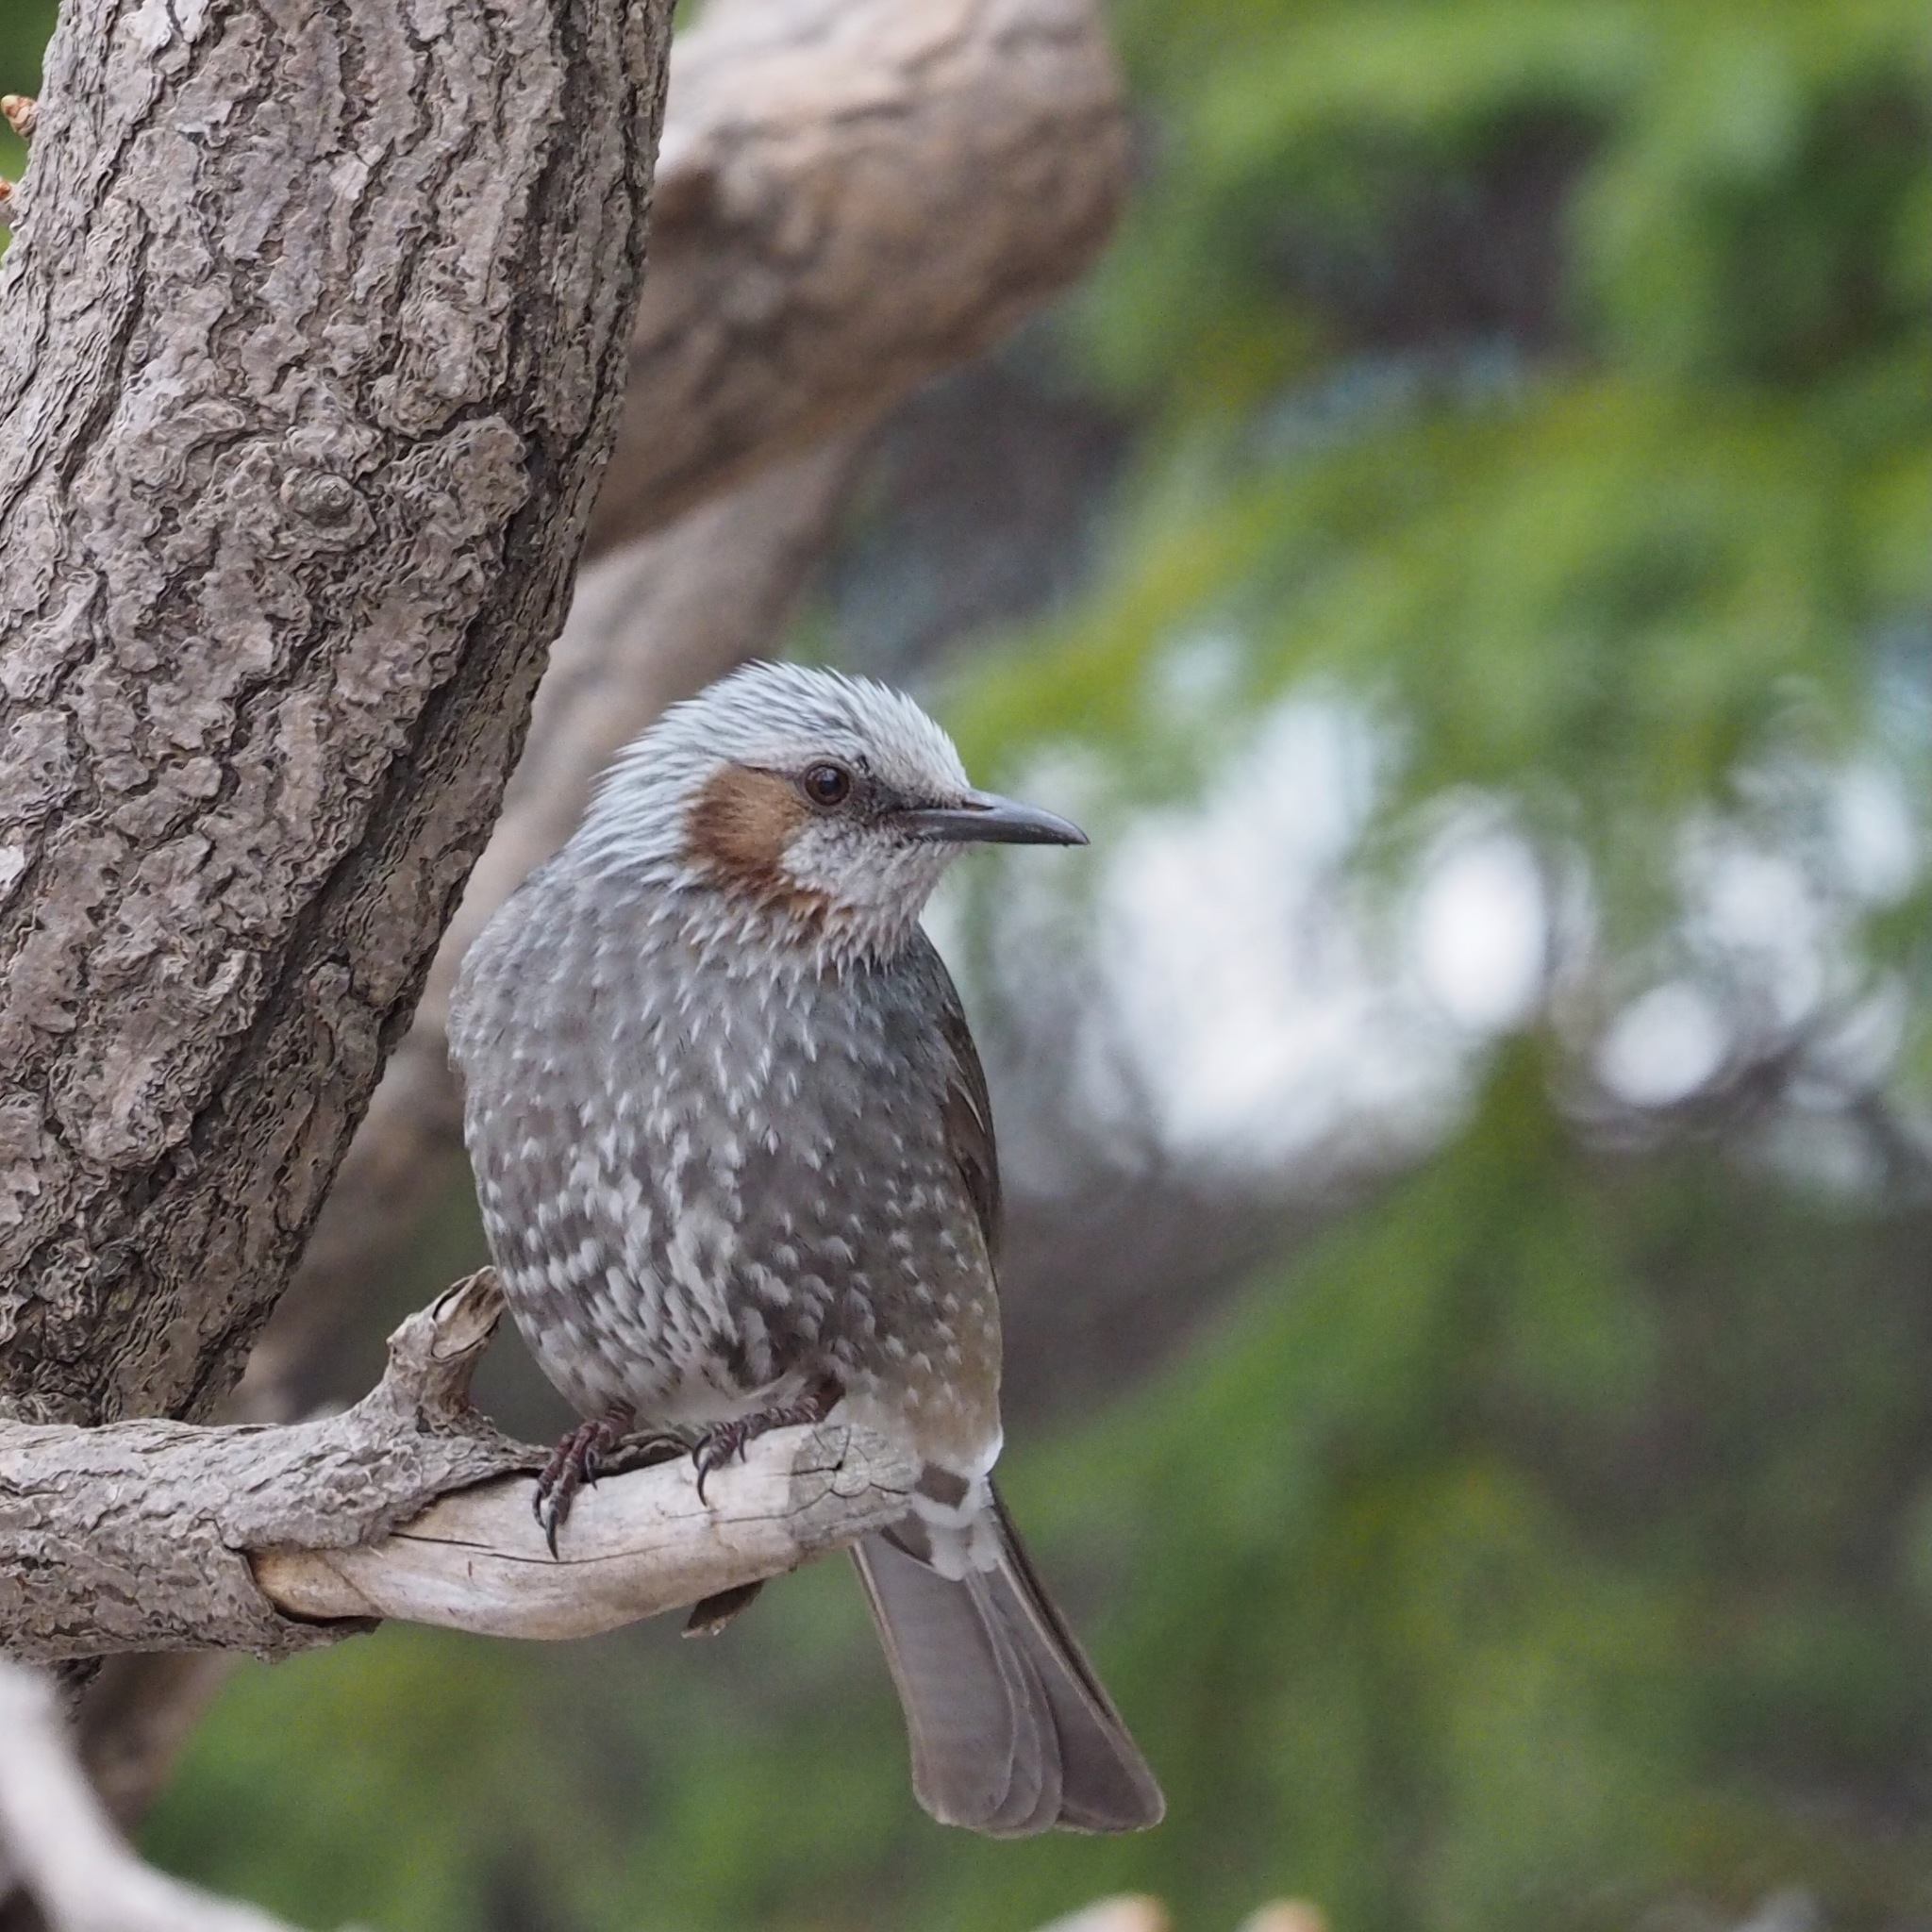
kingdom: Animalia
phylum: Chordata
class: Aves
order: Passeriformes
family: Pycnonotidae
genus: Hypsipetes
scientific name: Hypsipetes amaurotis
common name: Brown-eared bulbul
